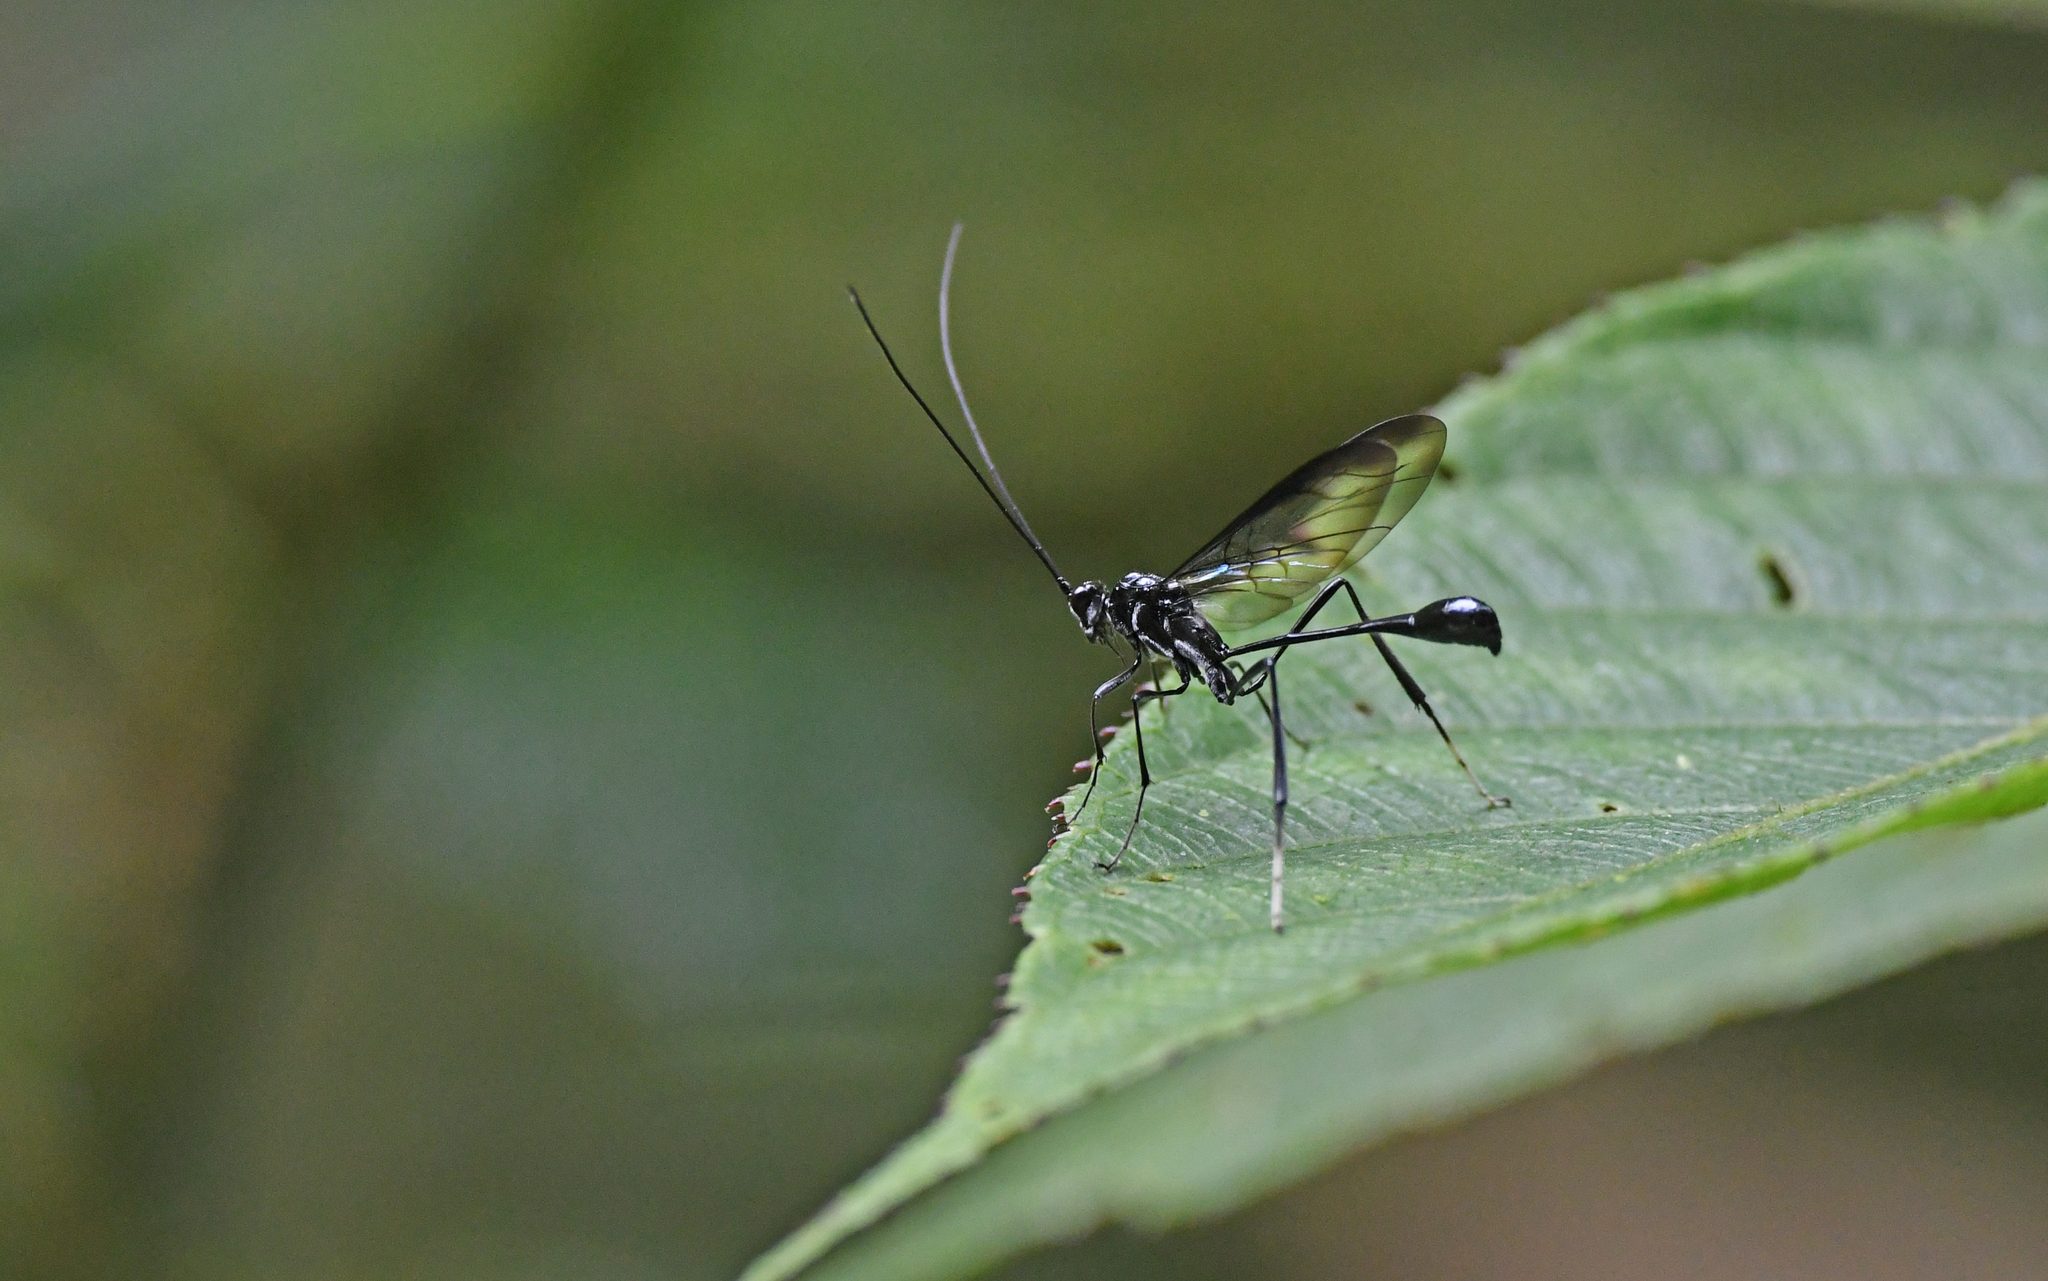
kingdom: Animalia
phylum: Arthropoda
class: Insecta
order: Hymenoptera
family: Pelecinidae
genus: Pelecinus
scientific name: Pelecinus polyturator
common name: American pelecinid wasp
